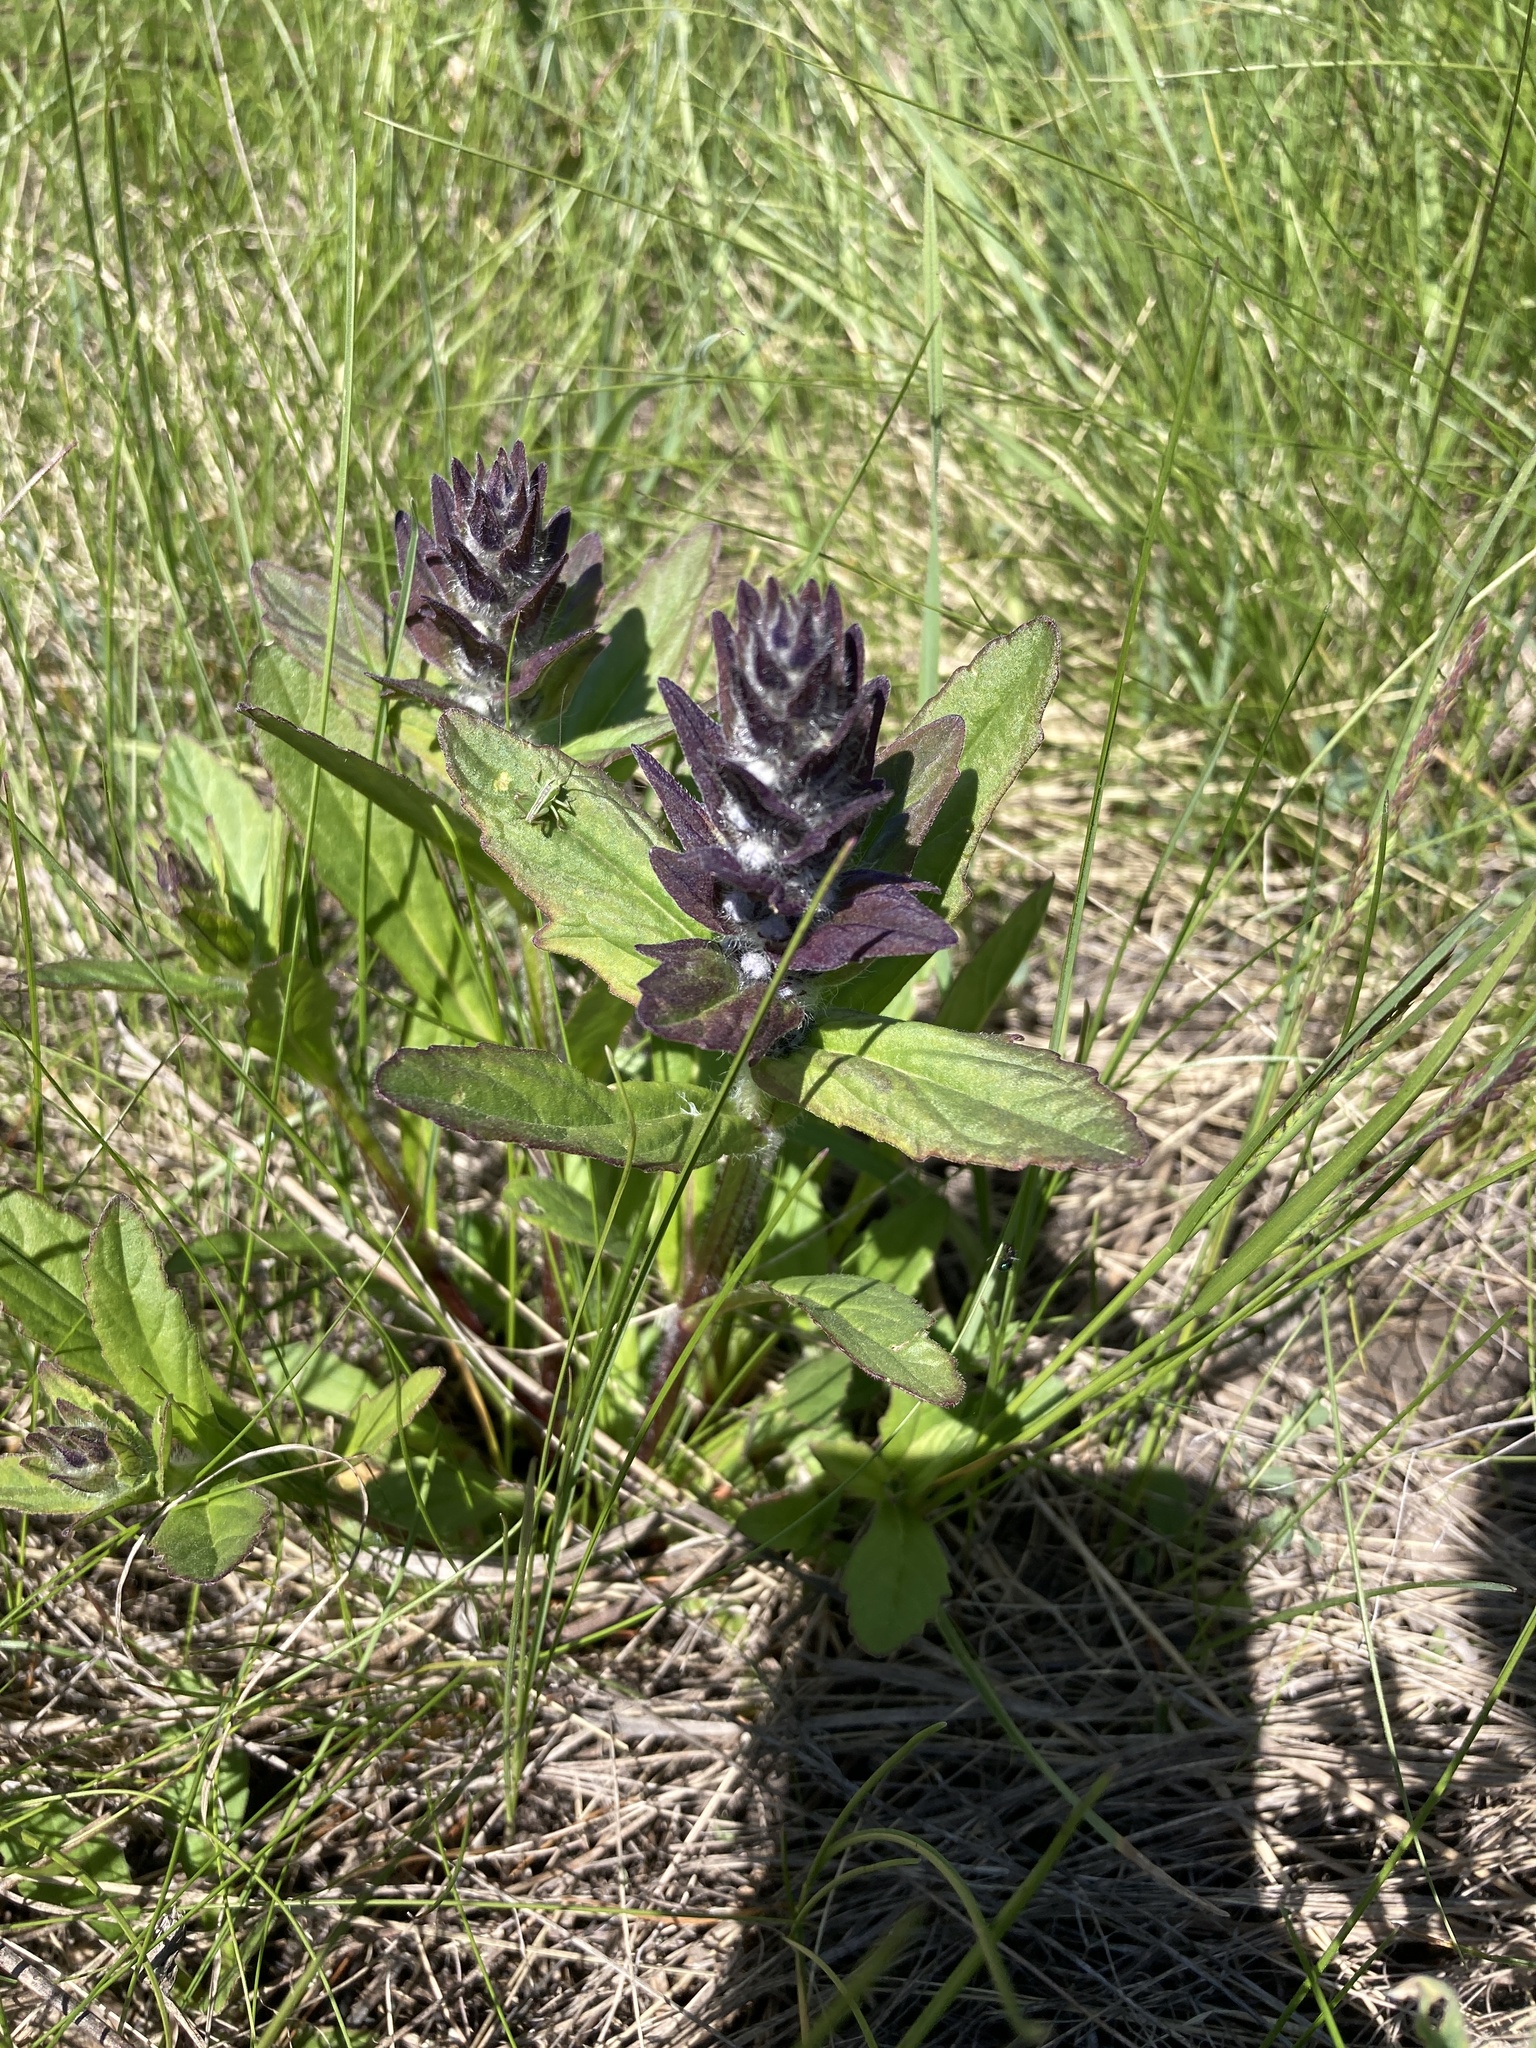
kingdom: Plantae
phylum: Tracheophyta
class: Magnoliopsida
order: Lamiales
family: Lamiaceae
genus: Ajuga
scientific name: Ajuga genevensis
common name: Blue bugle
